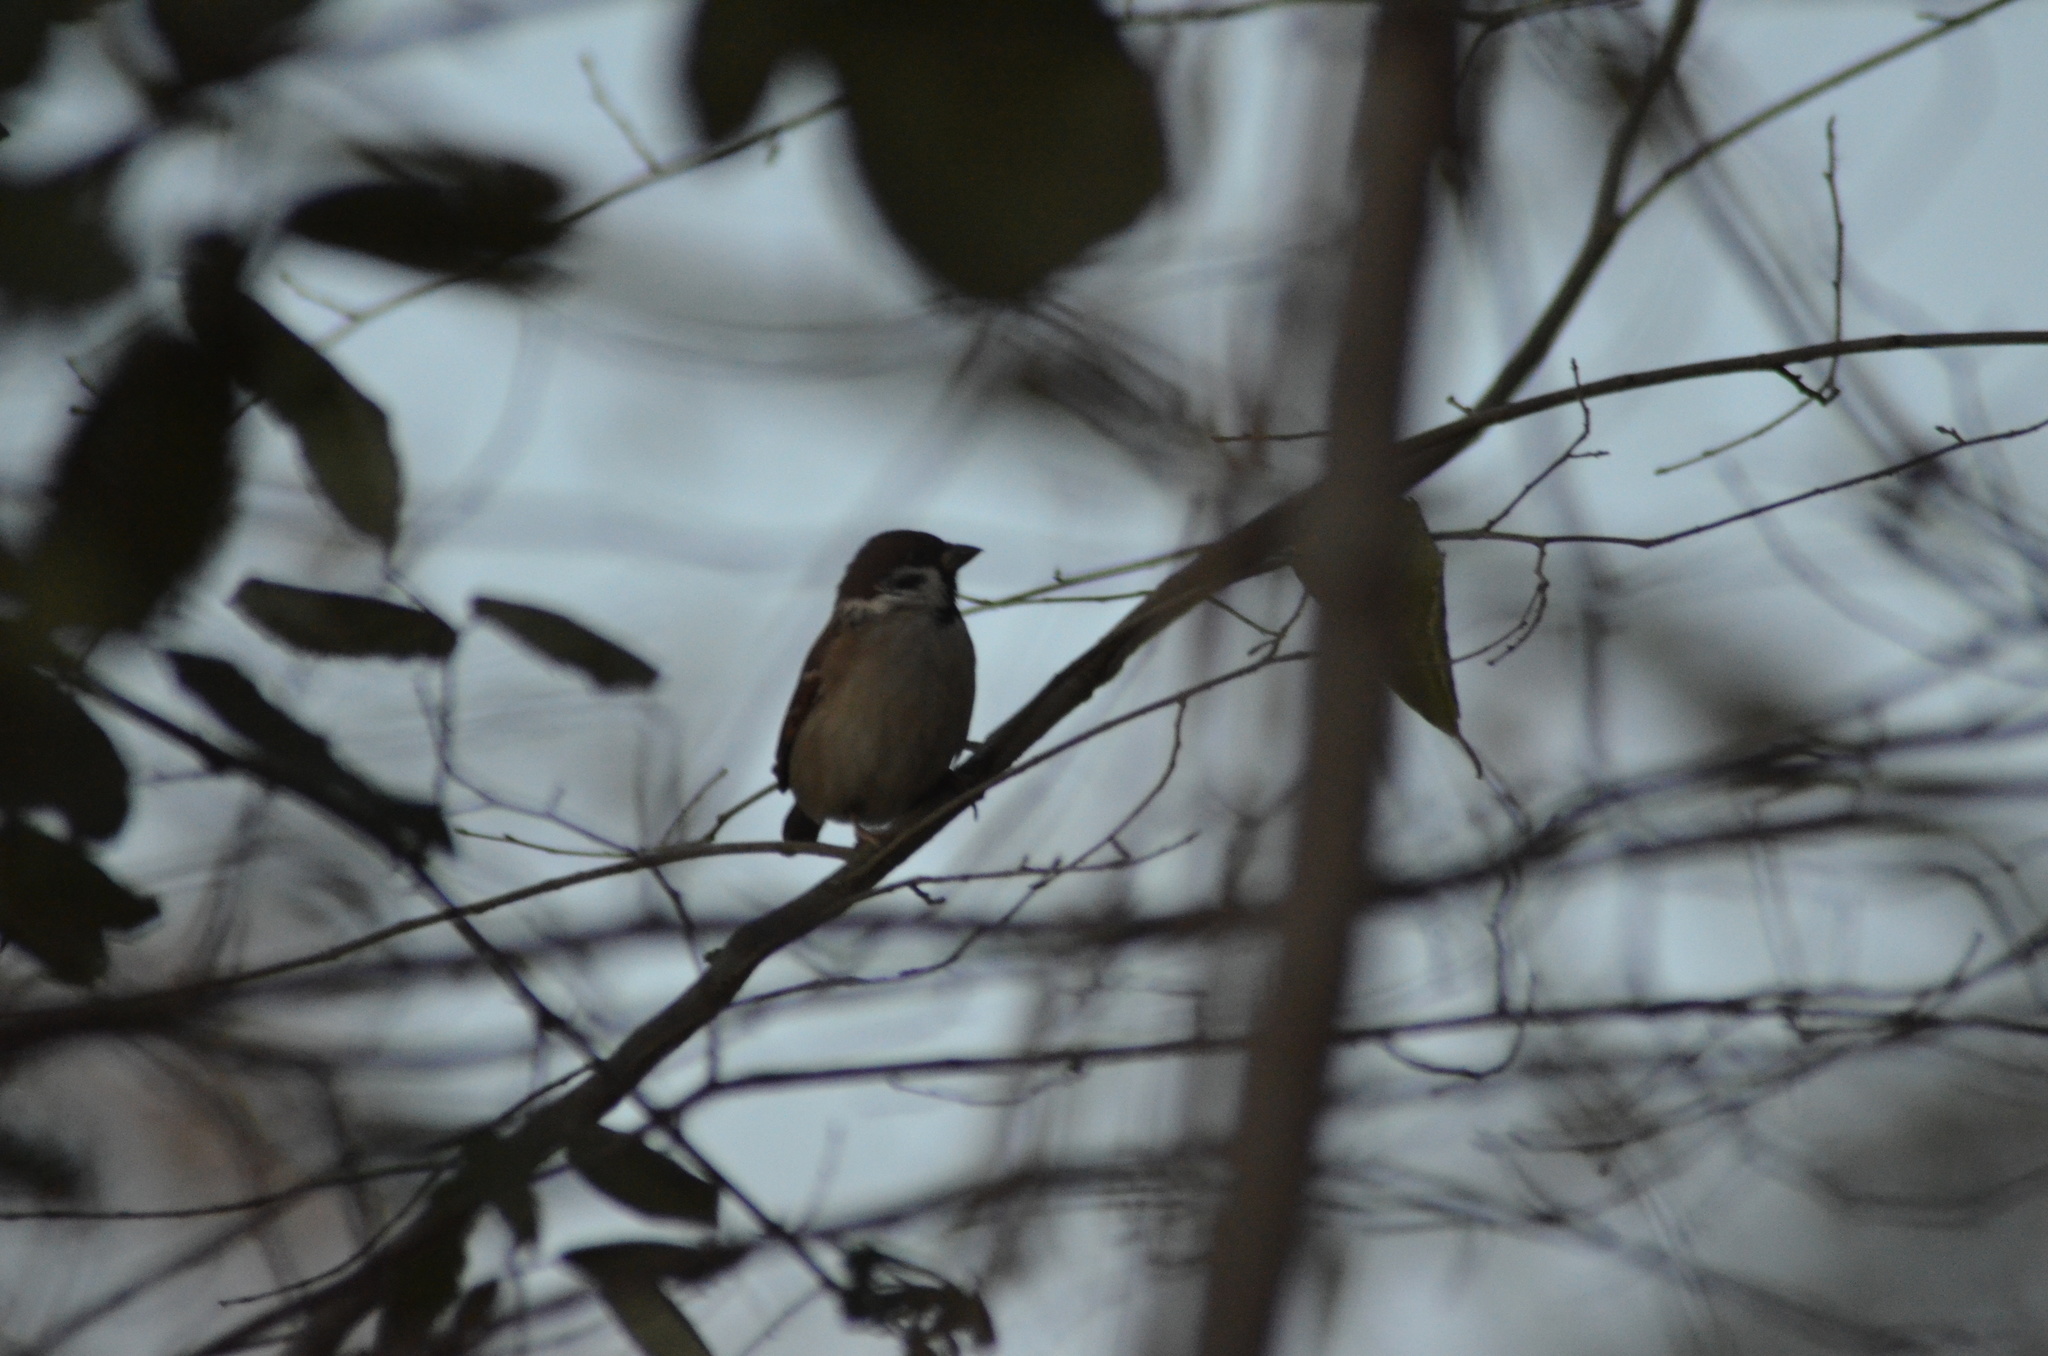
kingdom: Animalia
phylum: Chordata
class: Aves
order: Passeriformes
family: Passeridae
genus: Passer
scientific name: Passer montanus
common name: Eurasian tree sparrow
